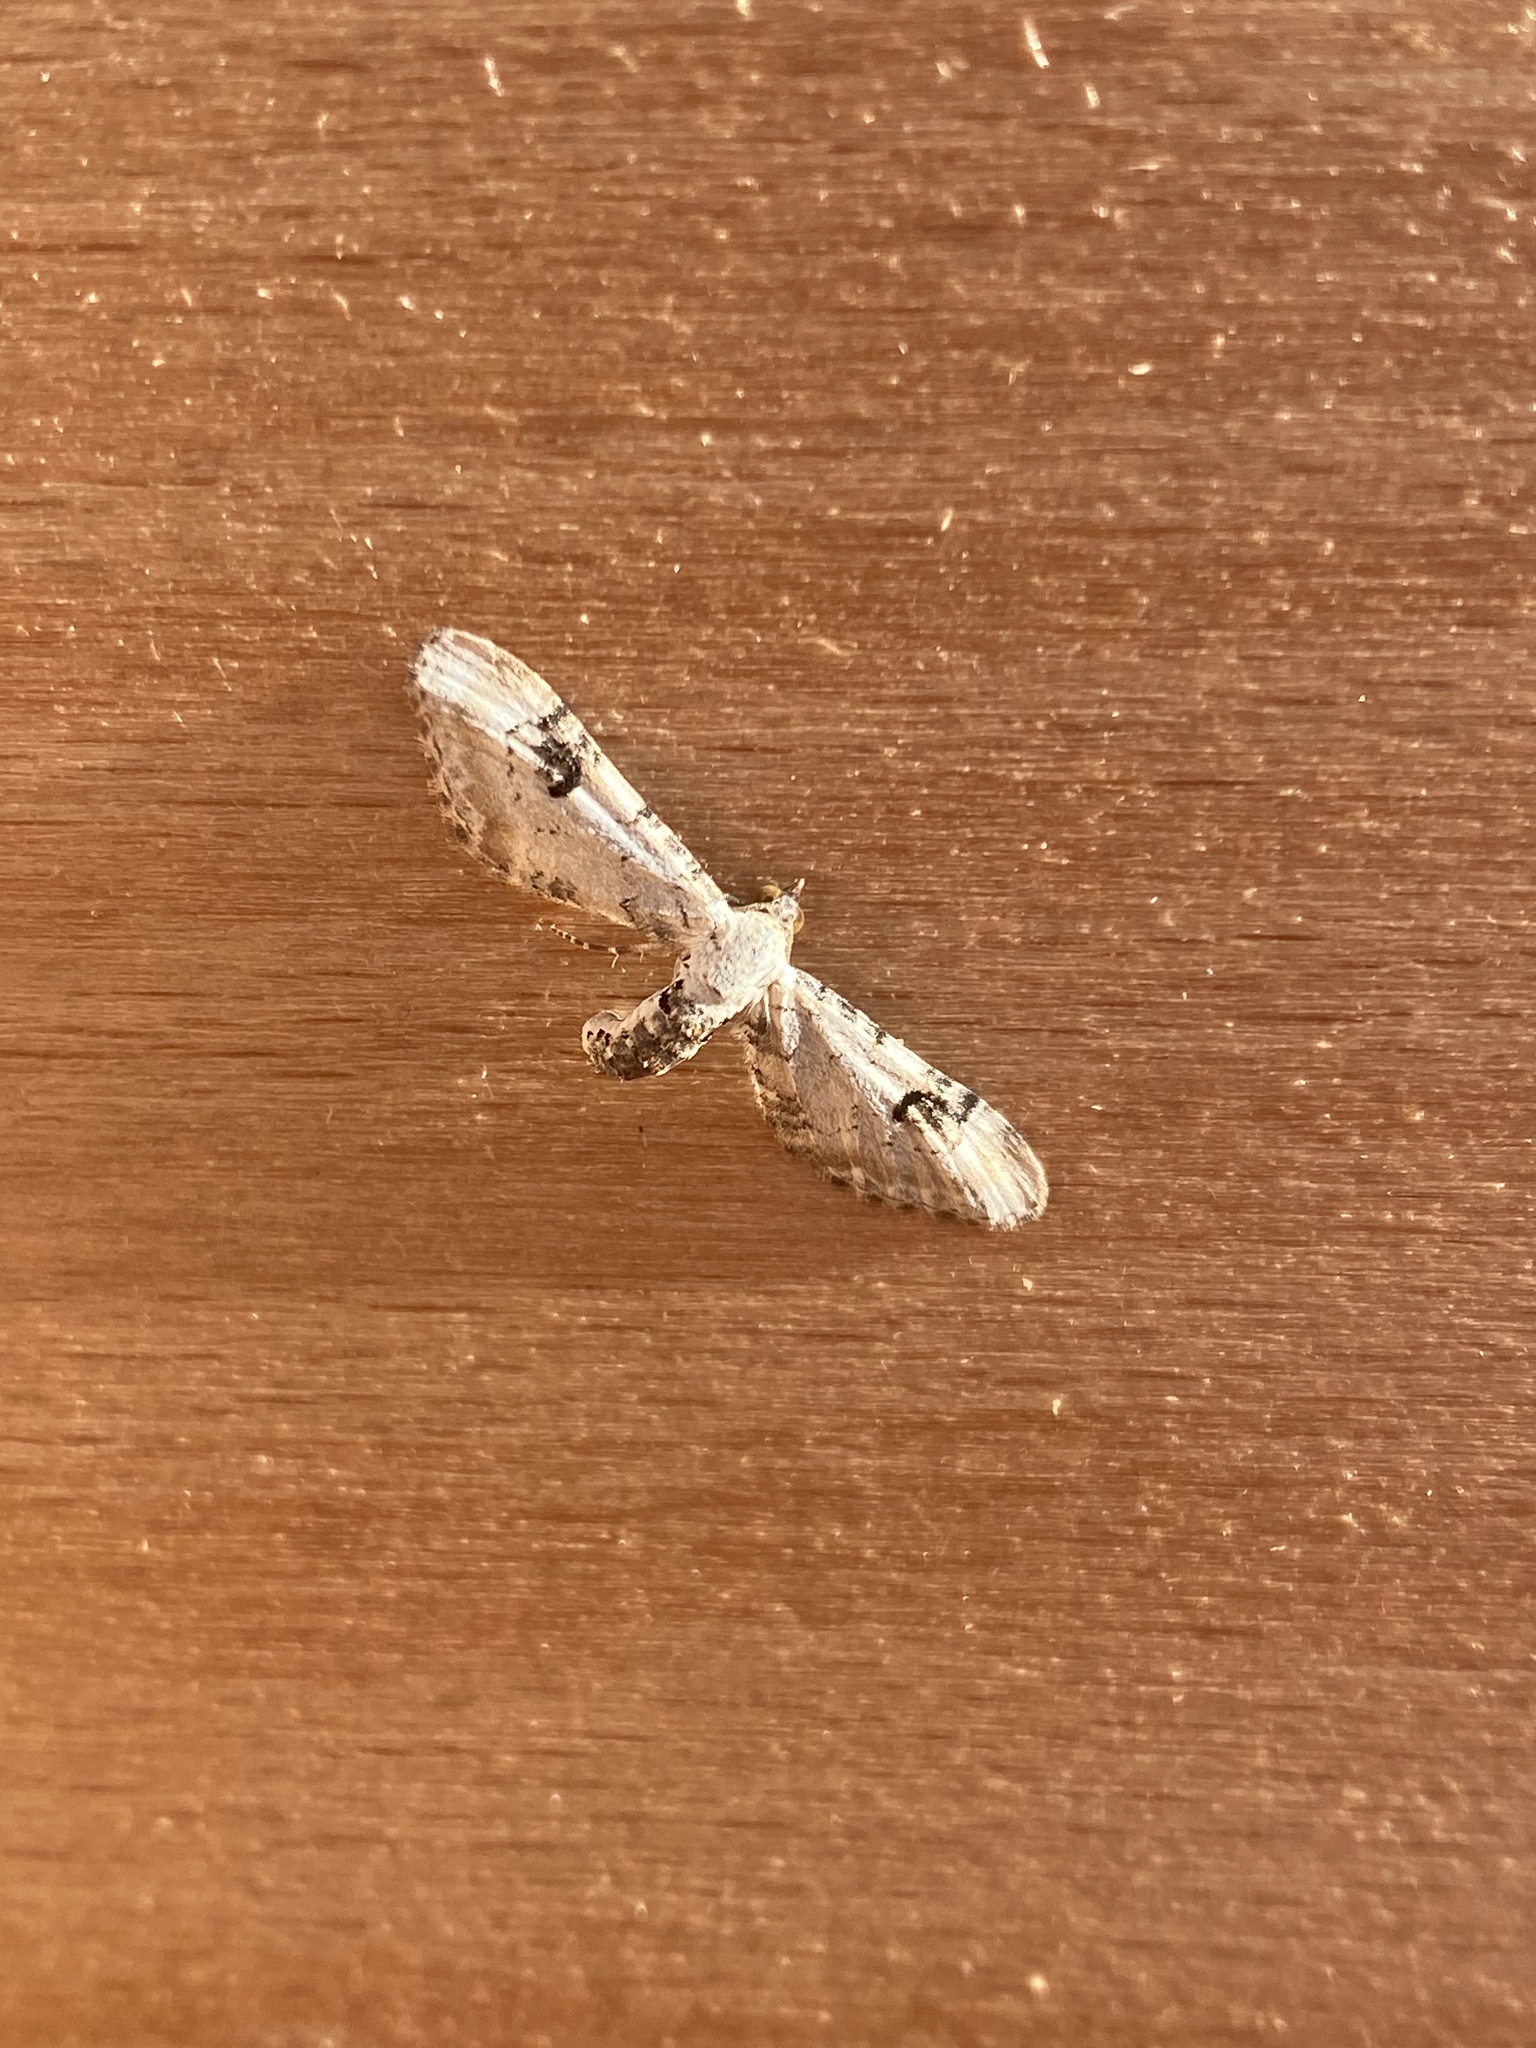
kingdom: Animalia
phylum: Arthropoda
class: Insecta
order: Lepidoptera
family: Geometridae
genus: Eupithecia
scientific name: Eupithecia centaureata
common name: Lime-speck pug
